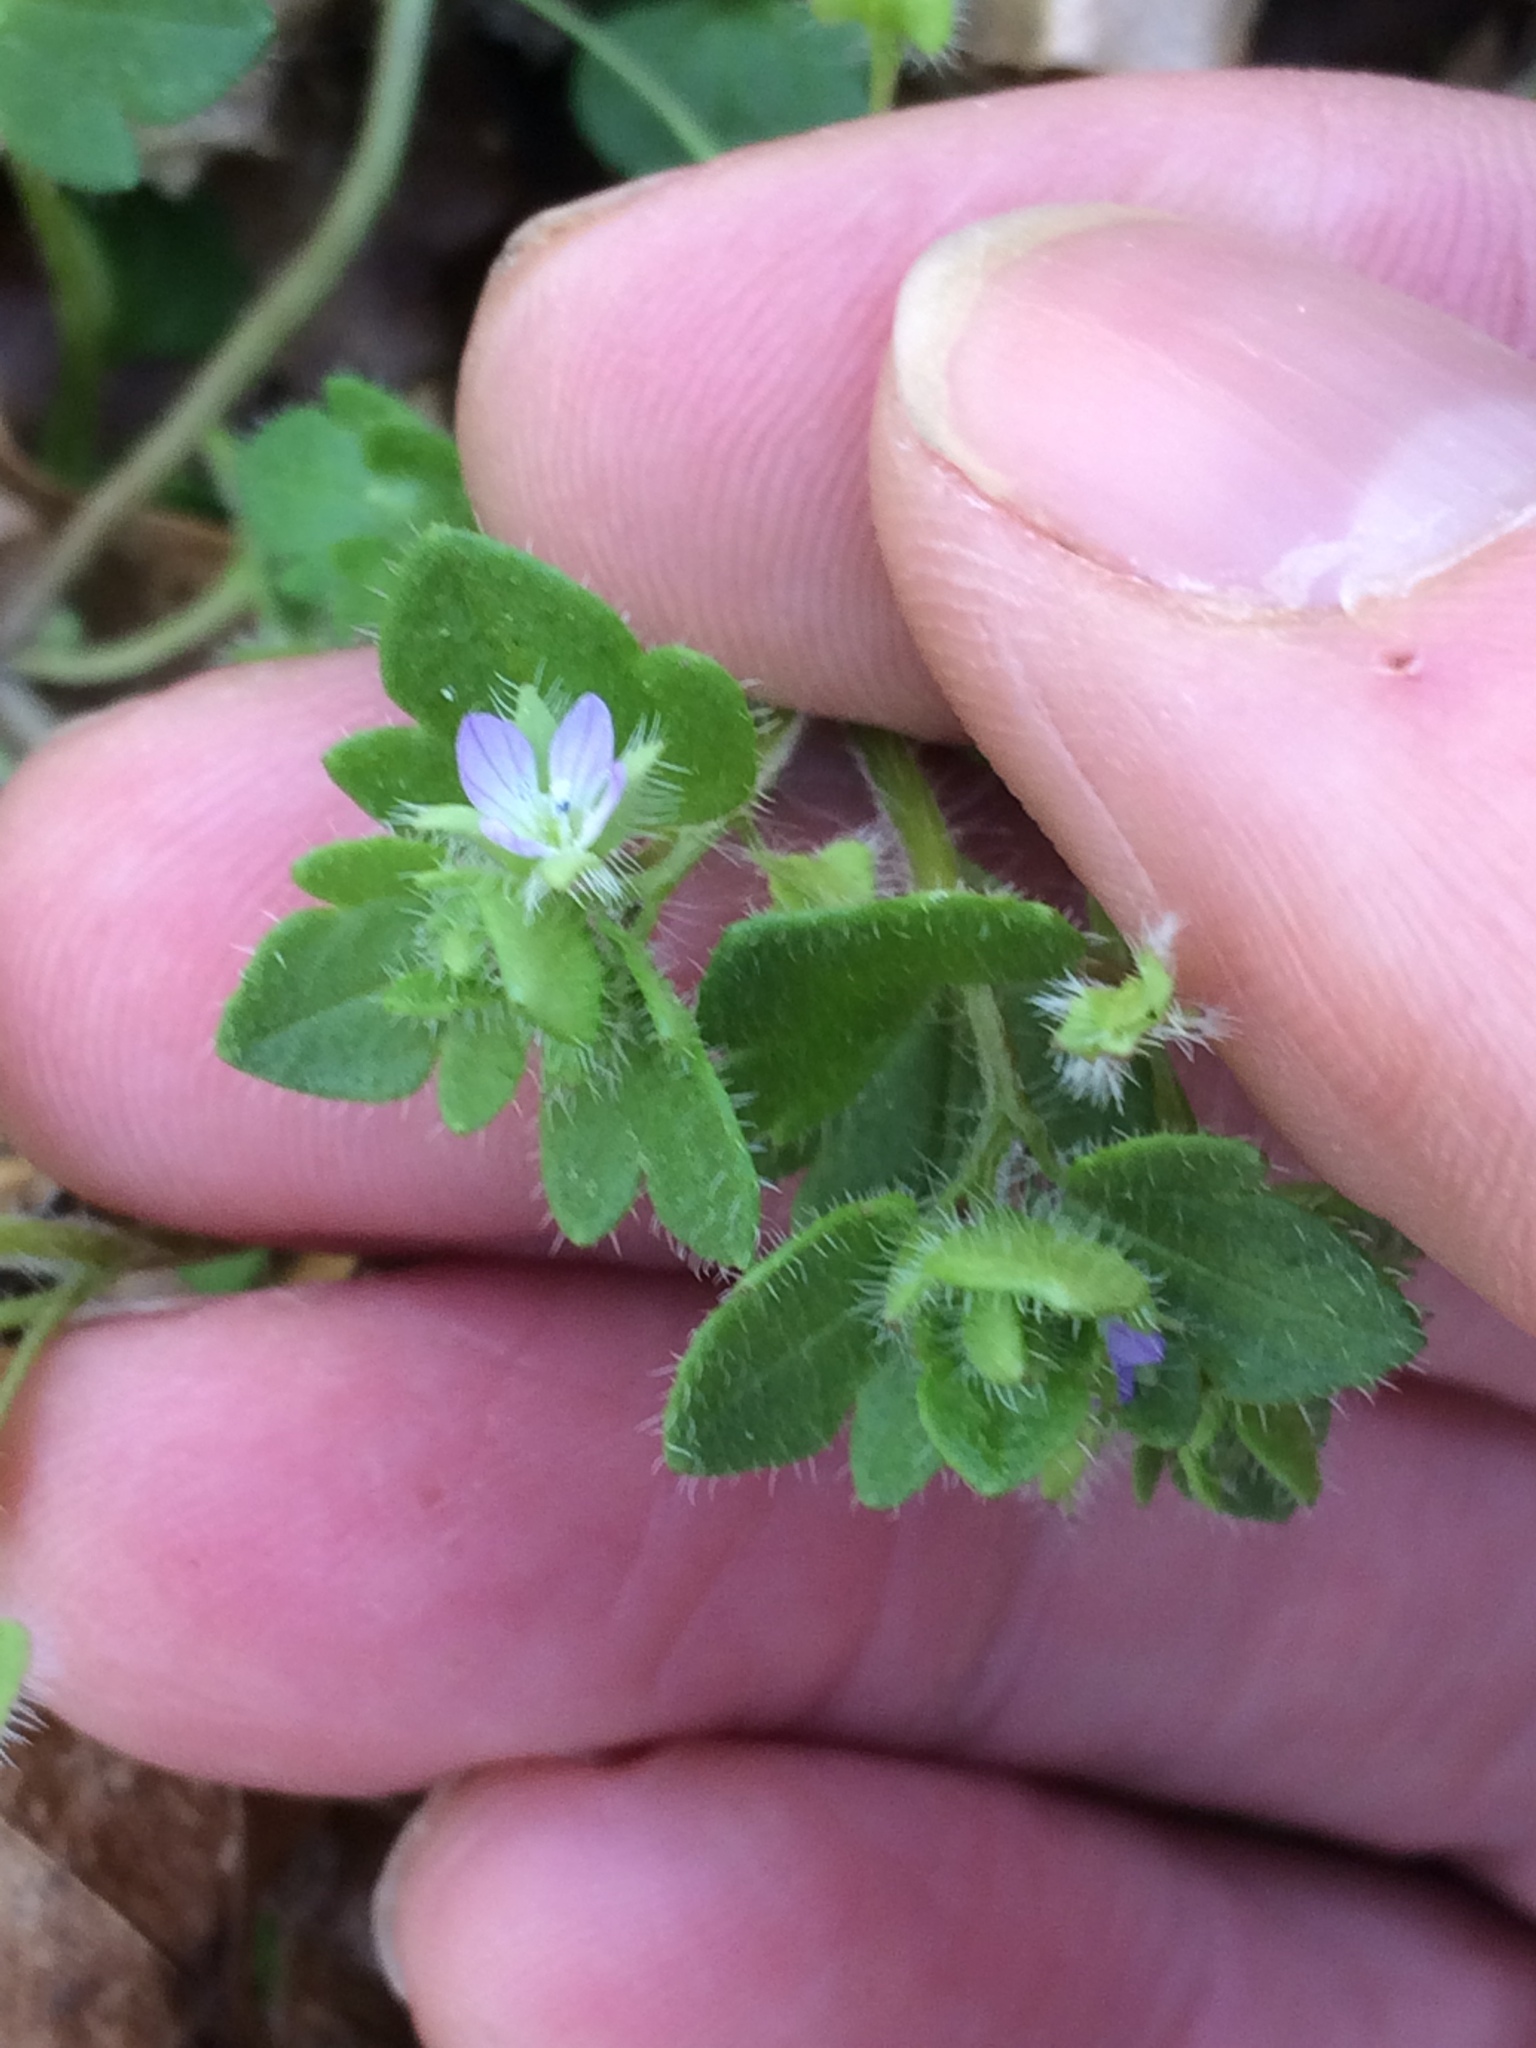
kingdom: Plantae
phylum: Tracheophyta
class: Magnoliopsida
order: Lamiales
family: Plantaginaceae
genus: Veronica
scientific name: Veronica hederifolia
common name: Ivy-leaved speedwell
